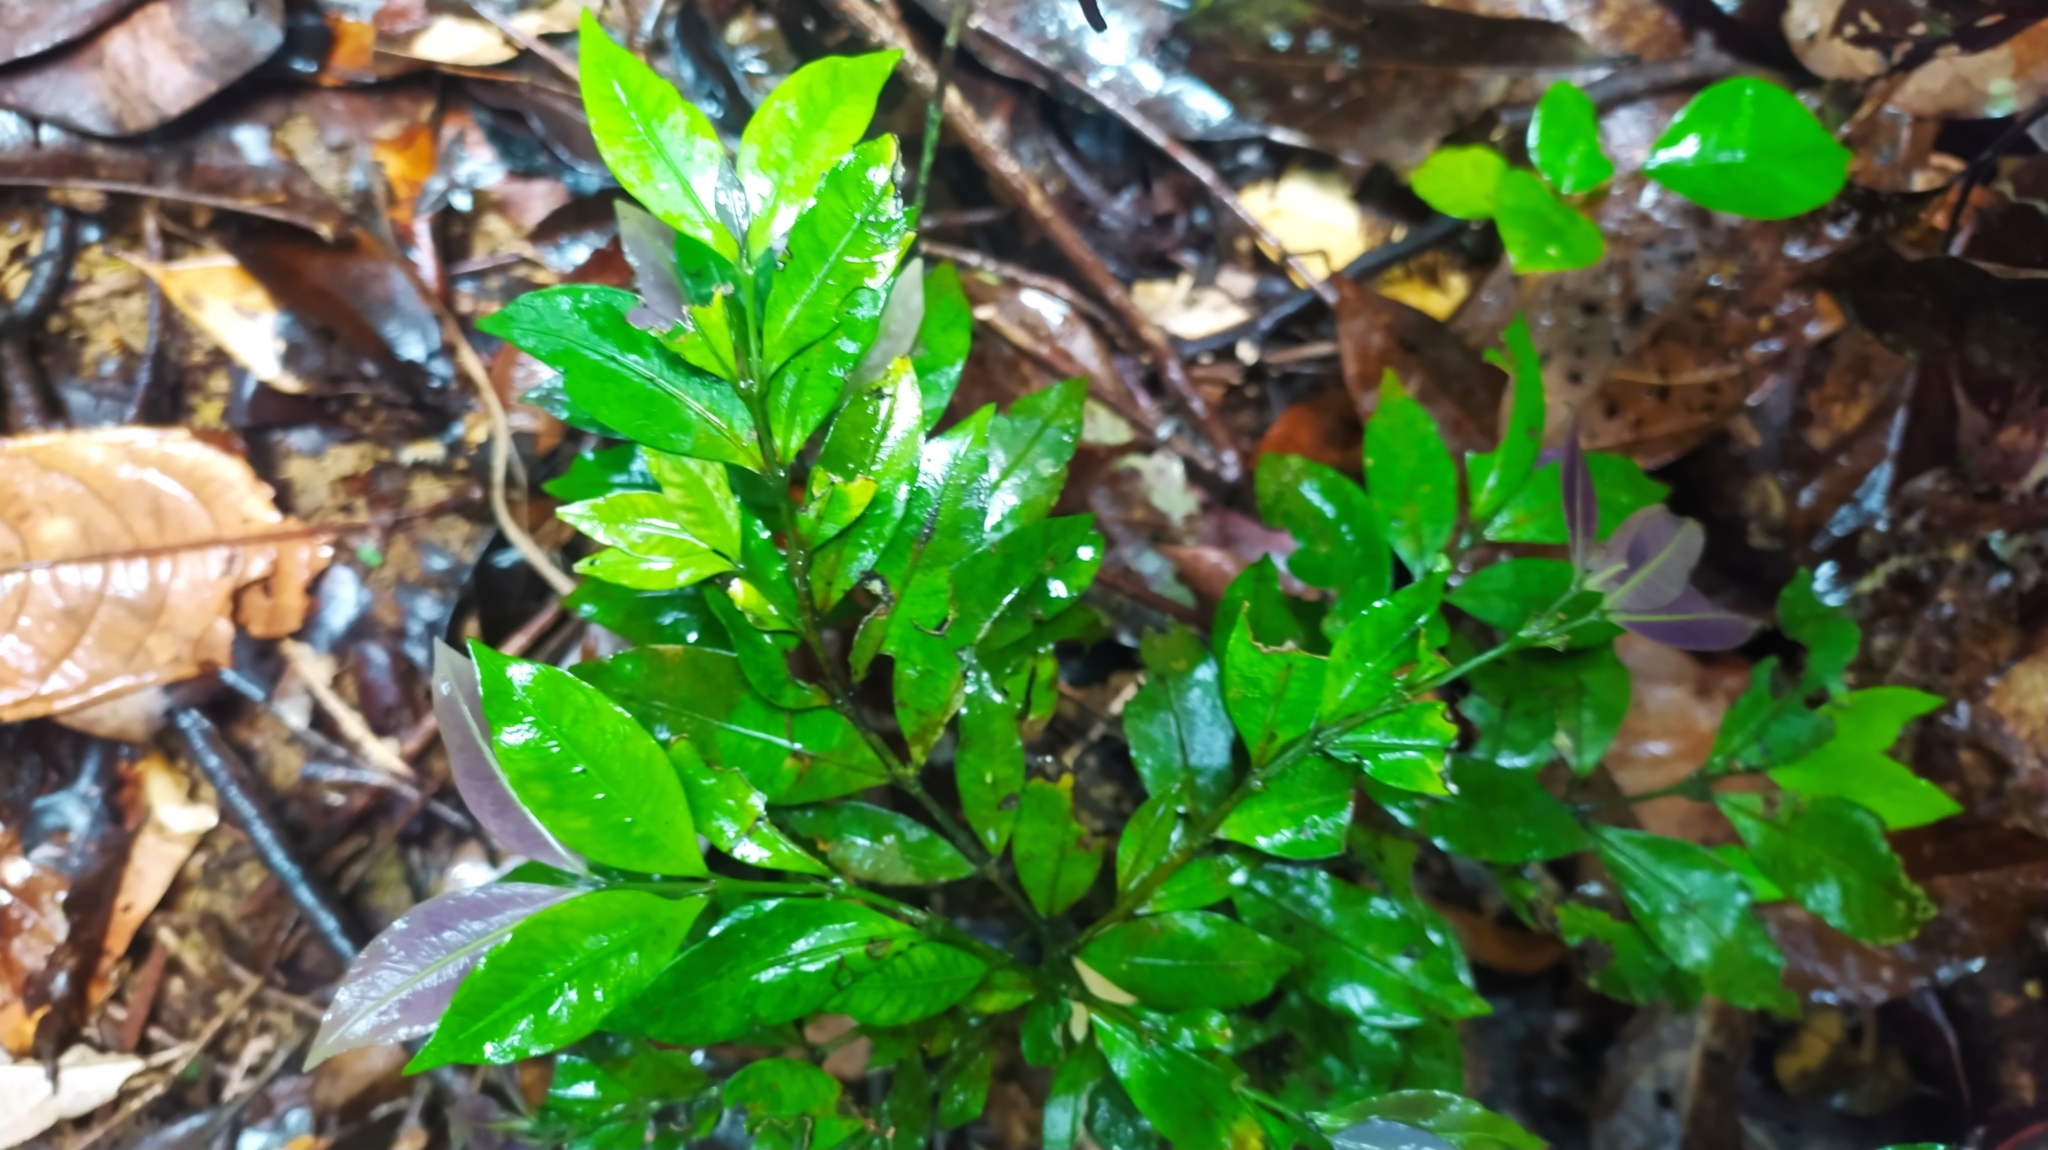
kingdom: Plantae
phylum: Tracheophyta
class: Magnoliopsida
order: Gentianales
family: Rubiaceae
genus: Faramea
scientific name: Faramea lourteigiana
